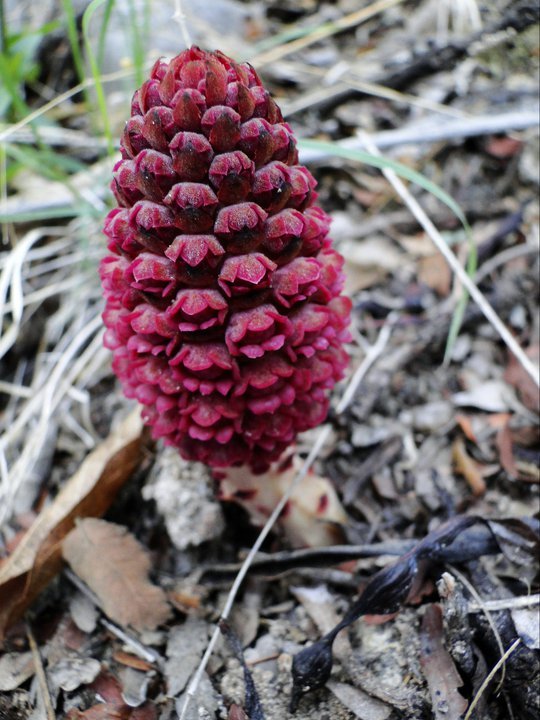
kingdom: Plantae
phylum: Tracheophyta
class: Magnoliopsida
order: Malvales
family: Cytinaceae
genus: Bdallophyton
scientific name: Bdallophyton andrieuxii
